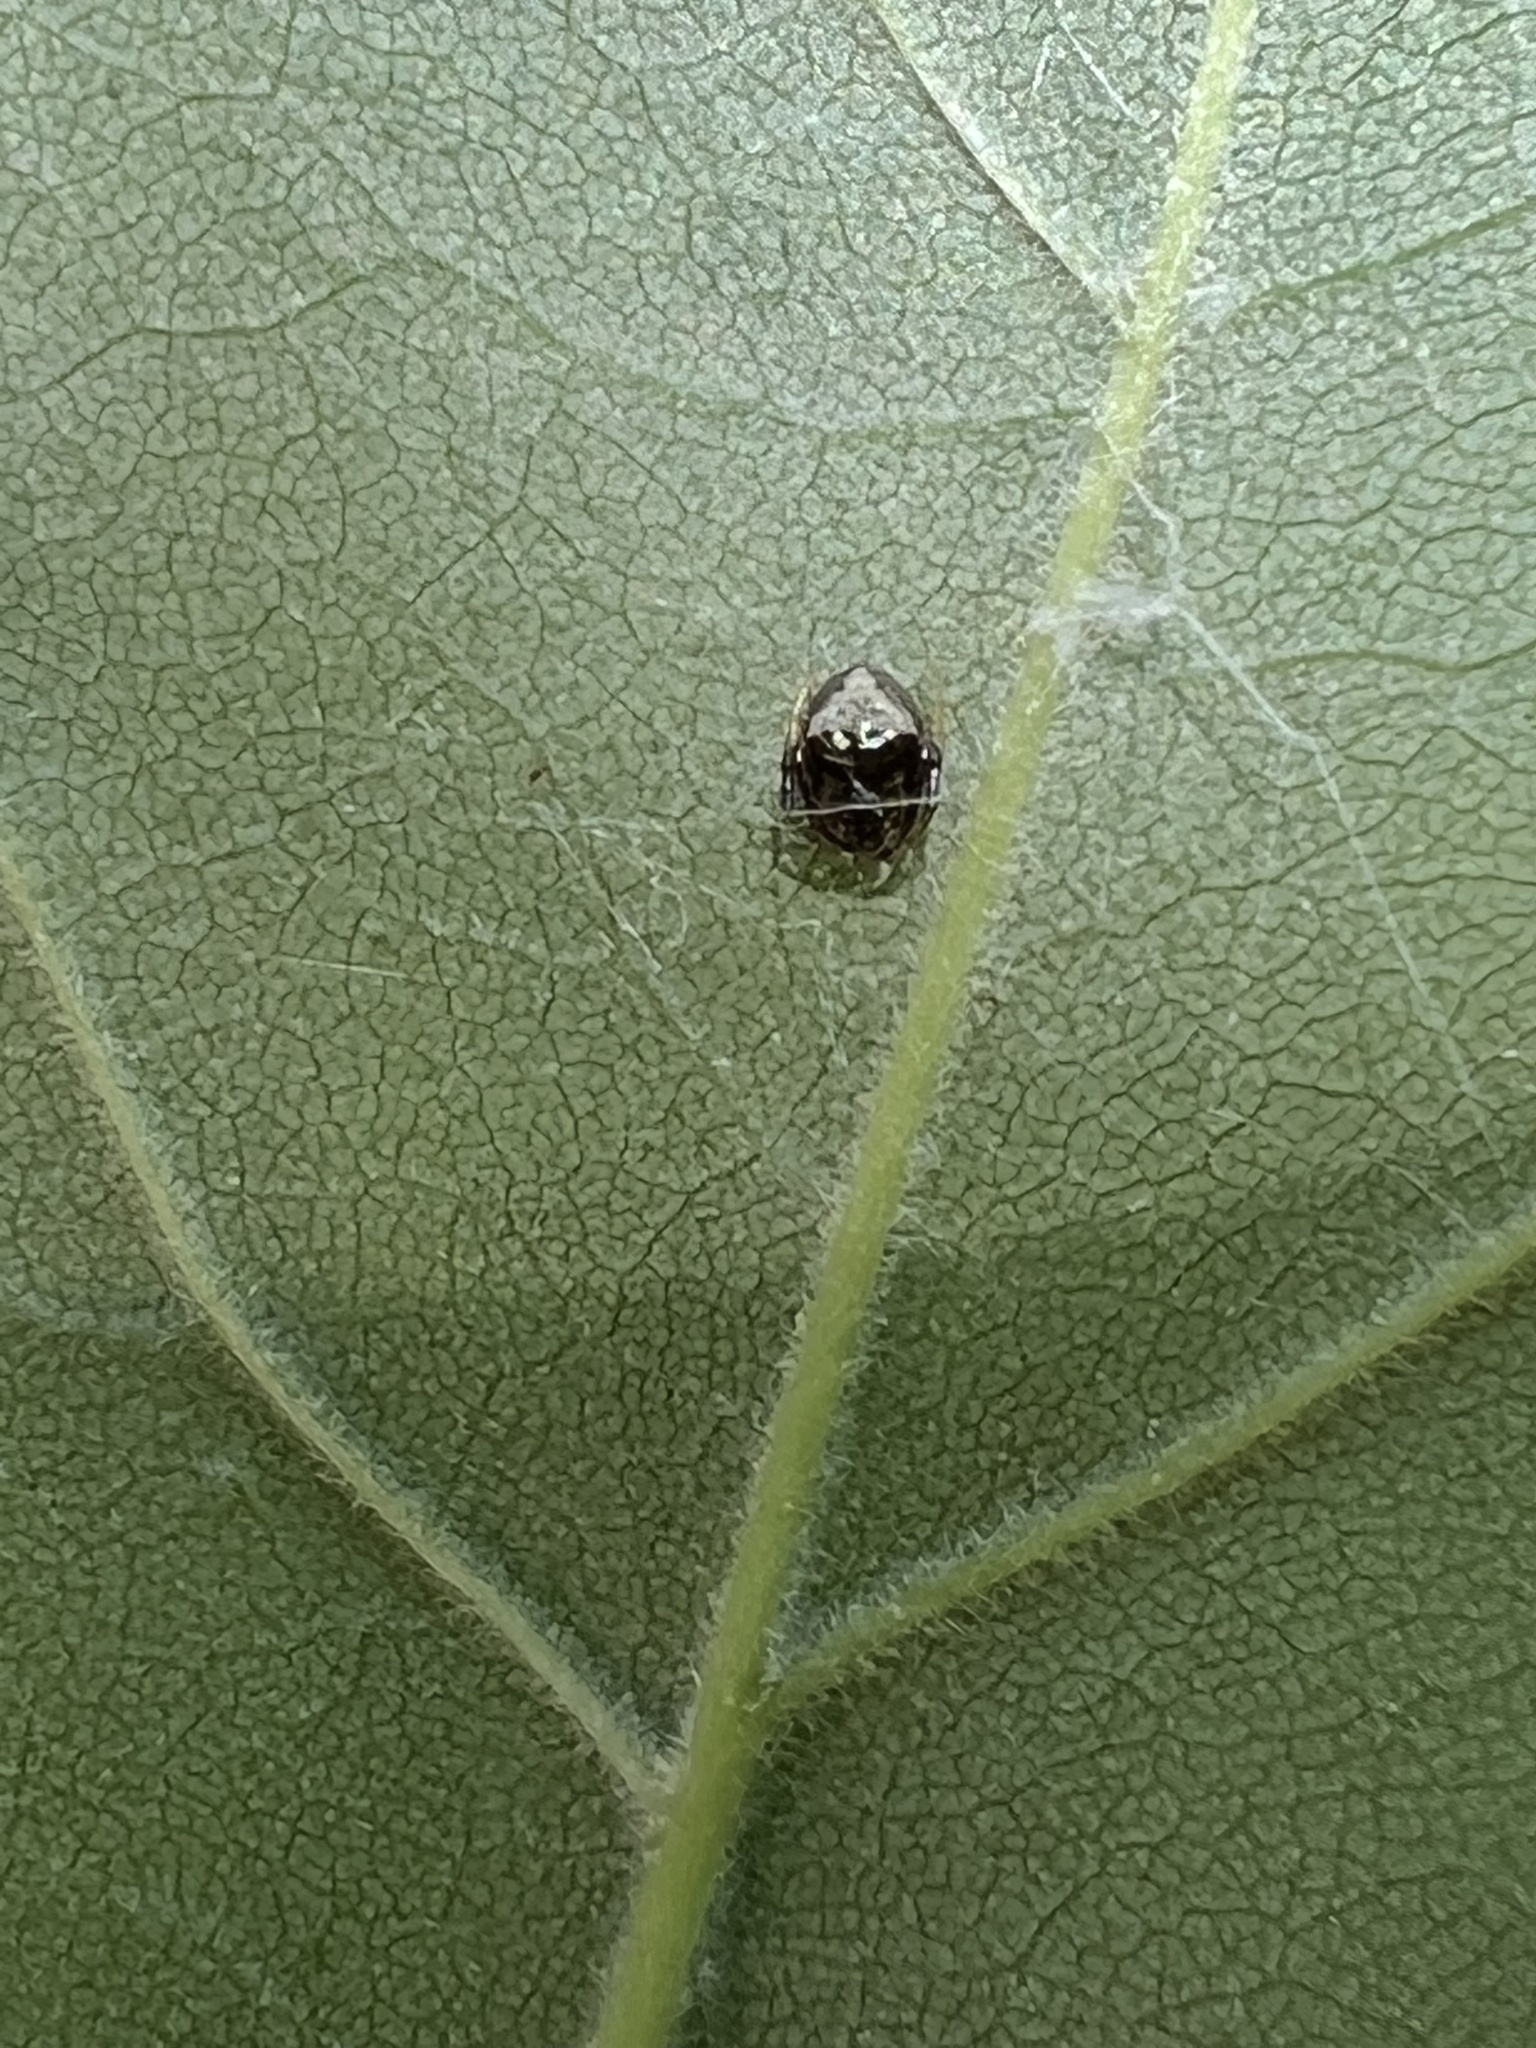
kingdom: Animalia
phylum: Arthropoda
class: Arachnida
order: Araneae
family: Araneidae
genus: Verrucosa
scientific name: Verrucosa arenata
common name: Orb weavers
